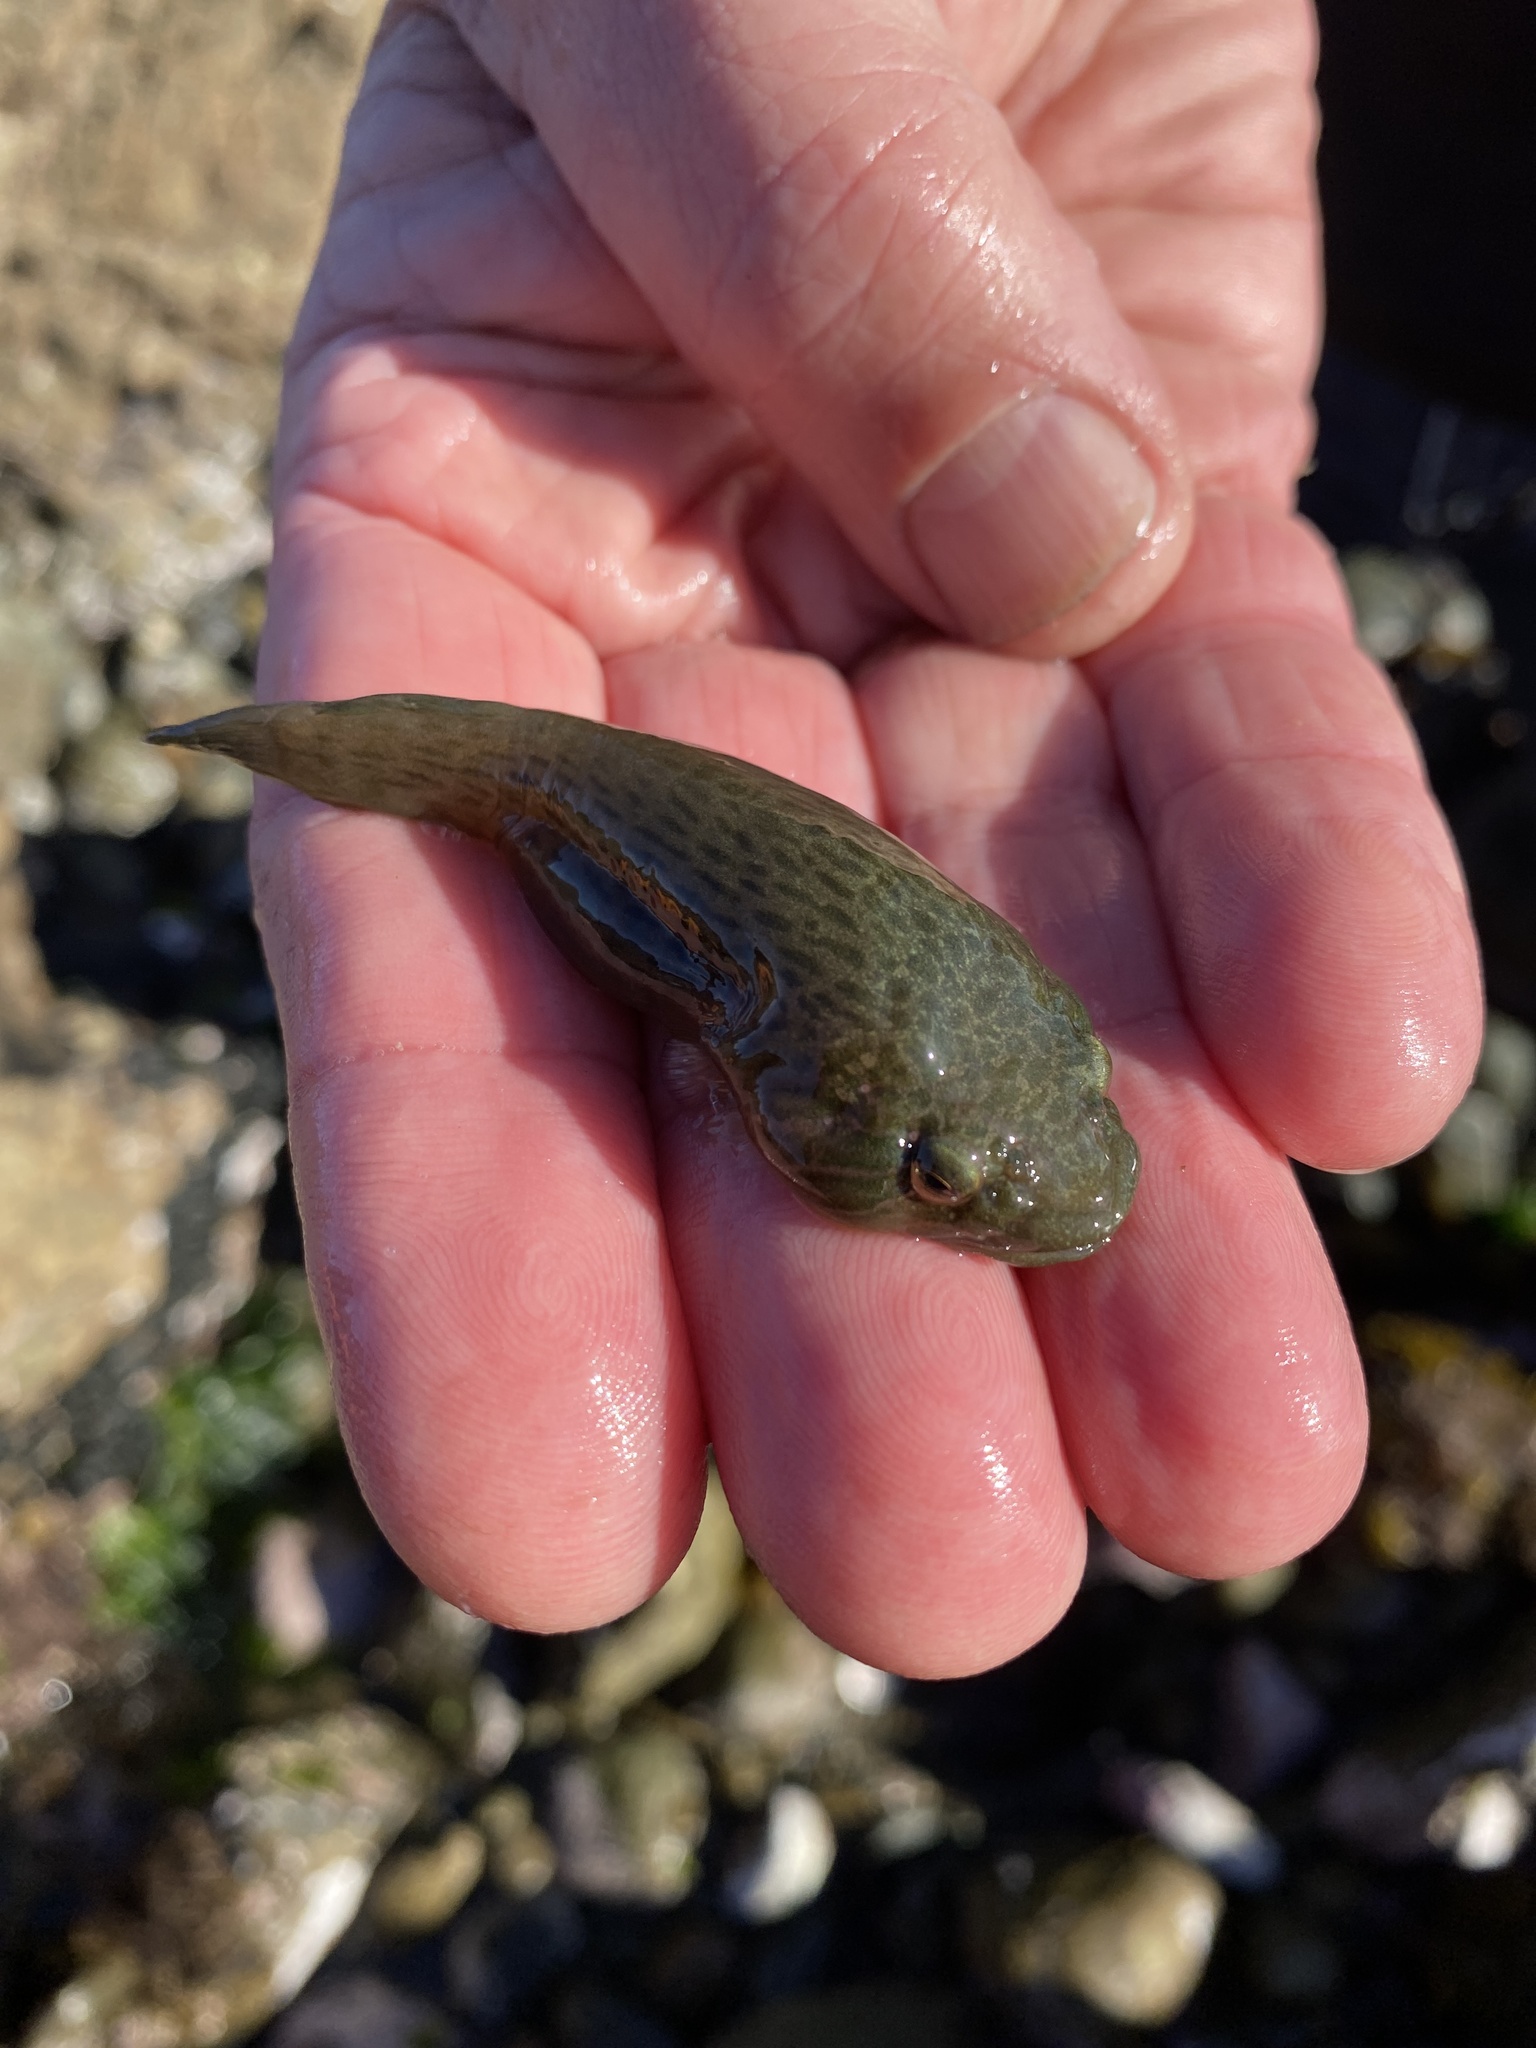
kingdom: Animalia
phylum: Chordata
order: Gobiesociformes
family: Gobiesocidae
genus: Trachelochismus
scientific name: Trachelochismus pinnulatus
